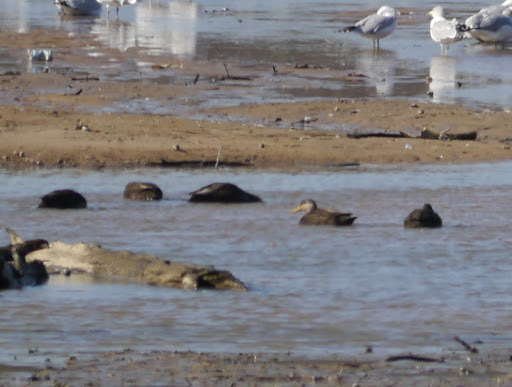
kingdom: Animalia
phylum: Chordata
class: Aves
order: Anseriformes
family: Anatidae
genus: Anas
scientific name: Anas rubripes
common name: American black duck
